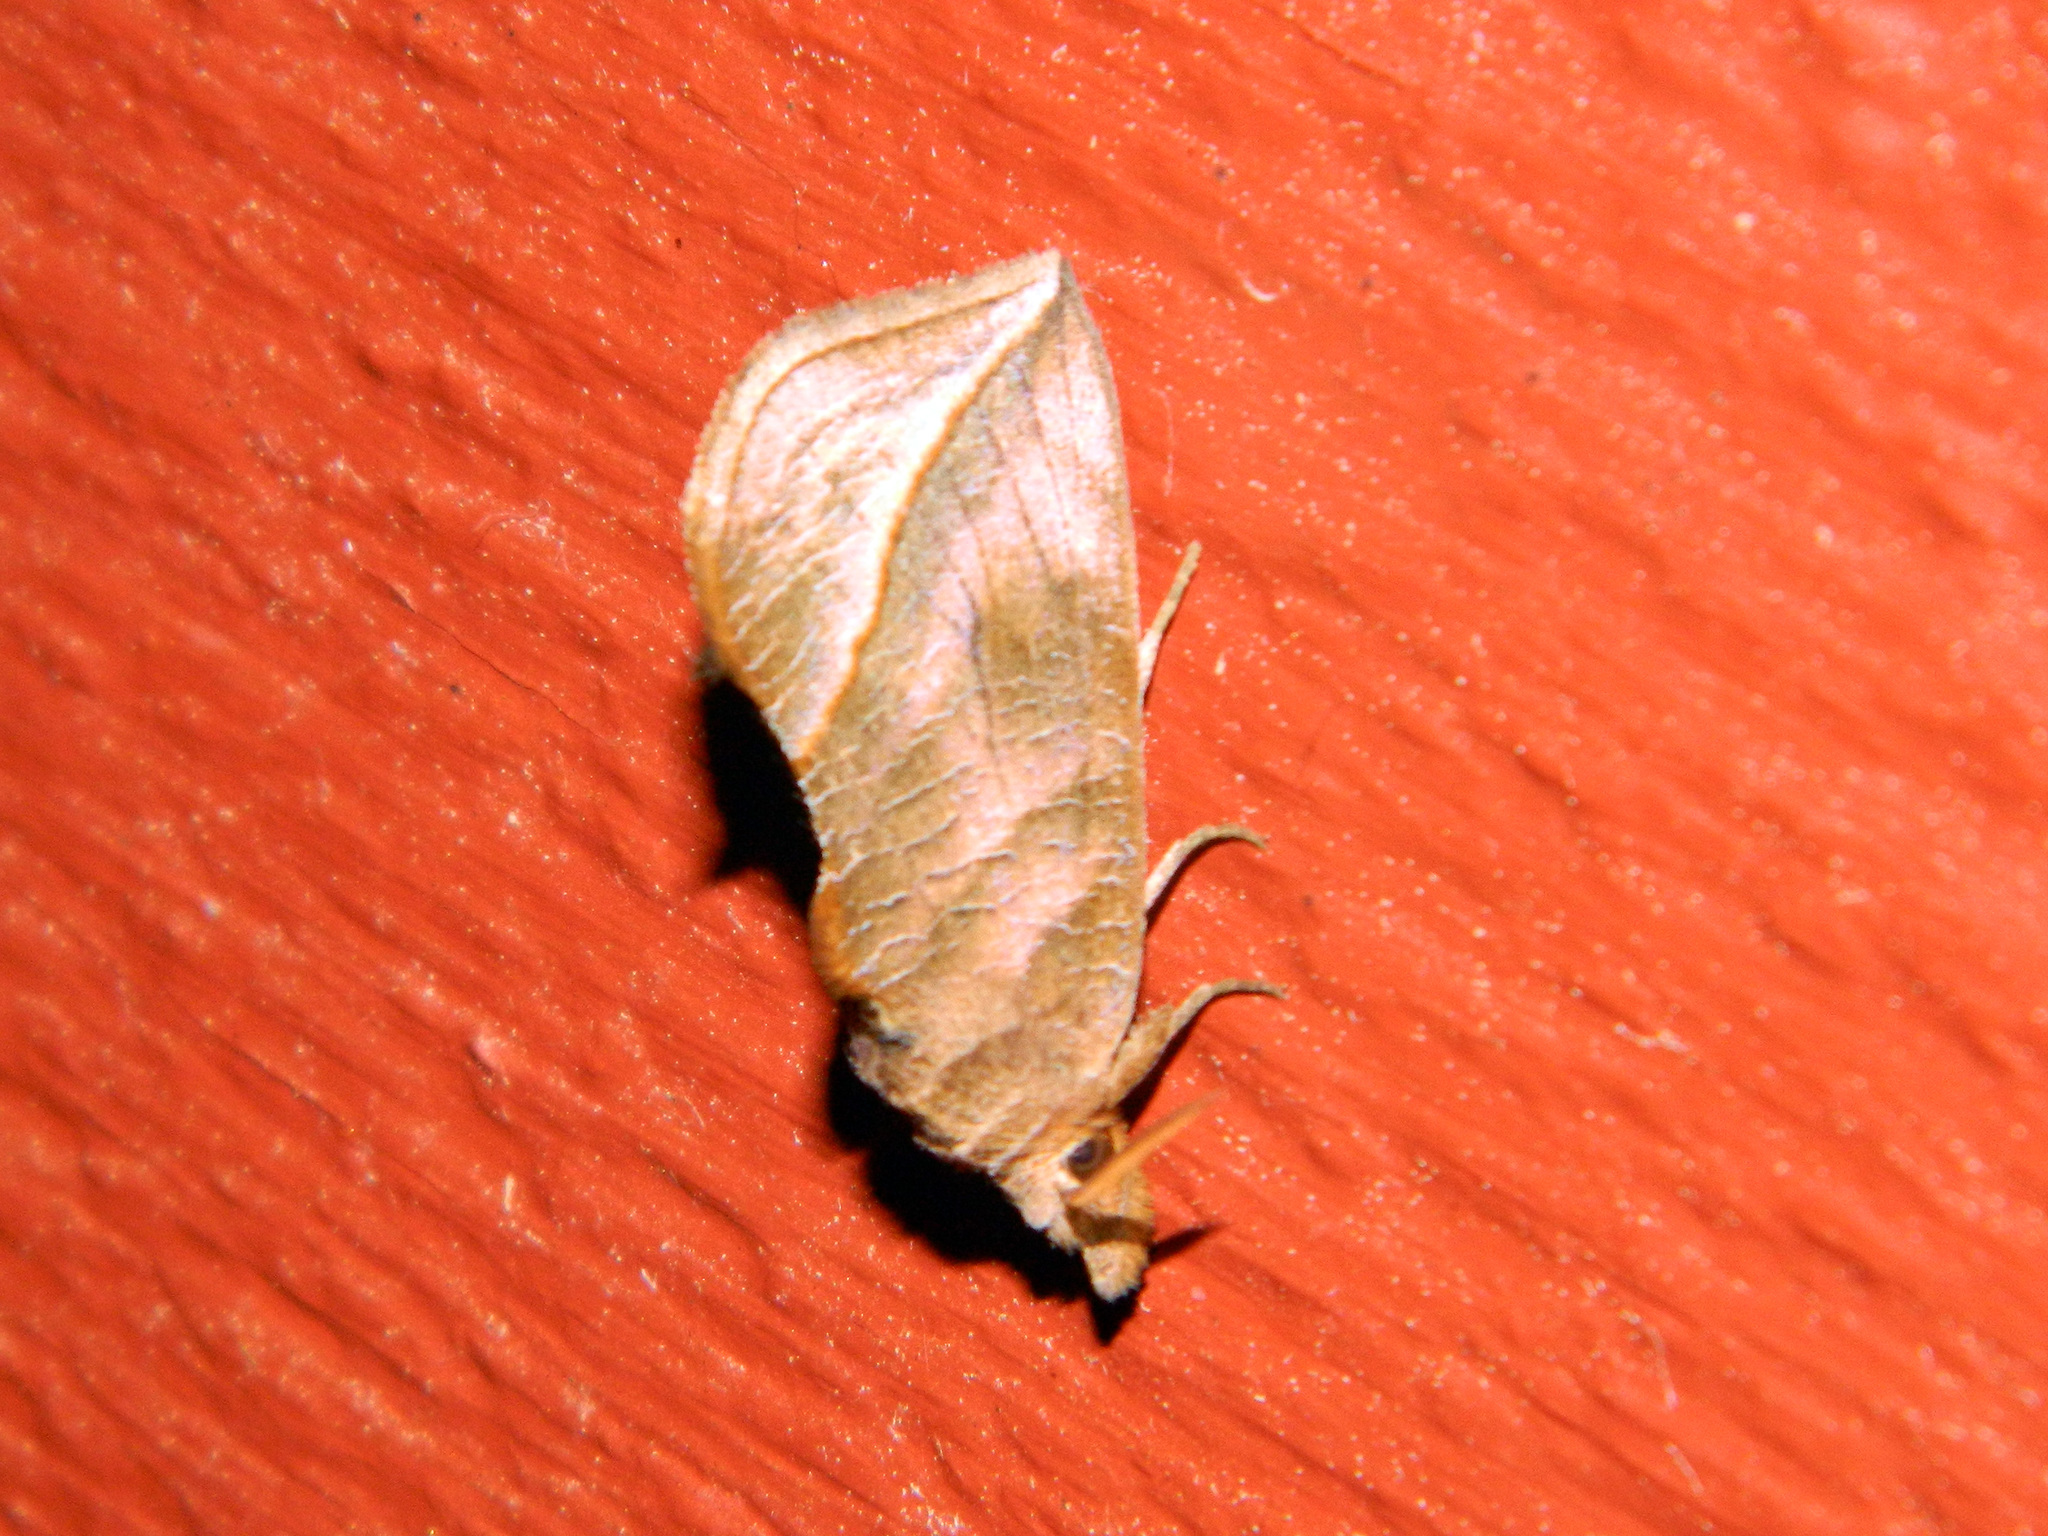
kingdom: Animalia
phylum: Arthropoda
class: Insecta
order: Lepidoptera
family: Erebidae
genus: Calyptra
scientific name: Calyptra canadensis
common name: Canadian owlet
